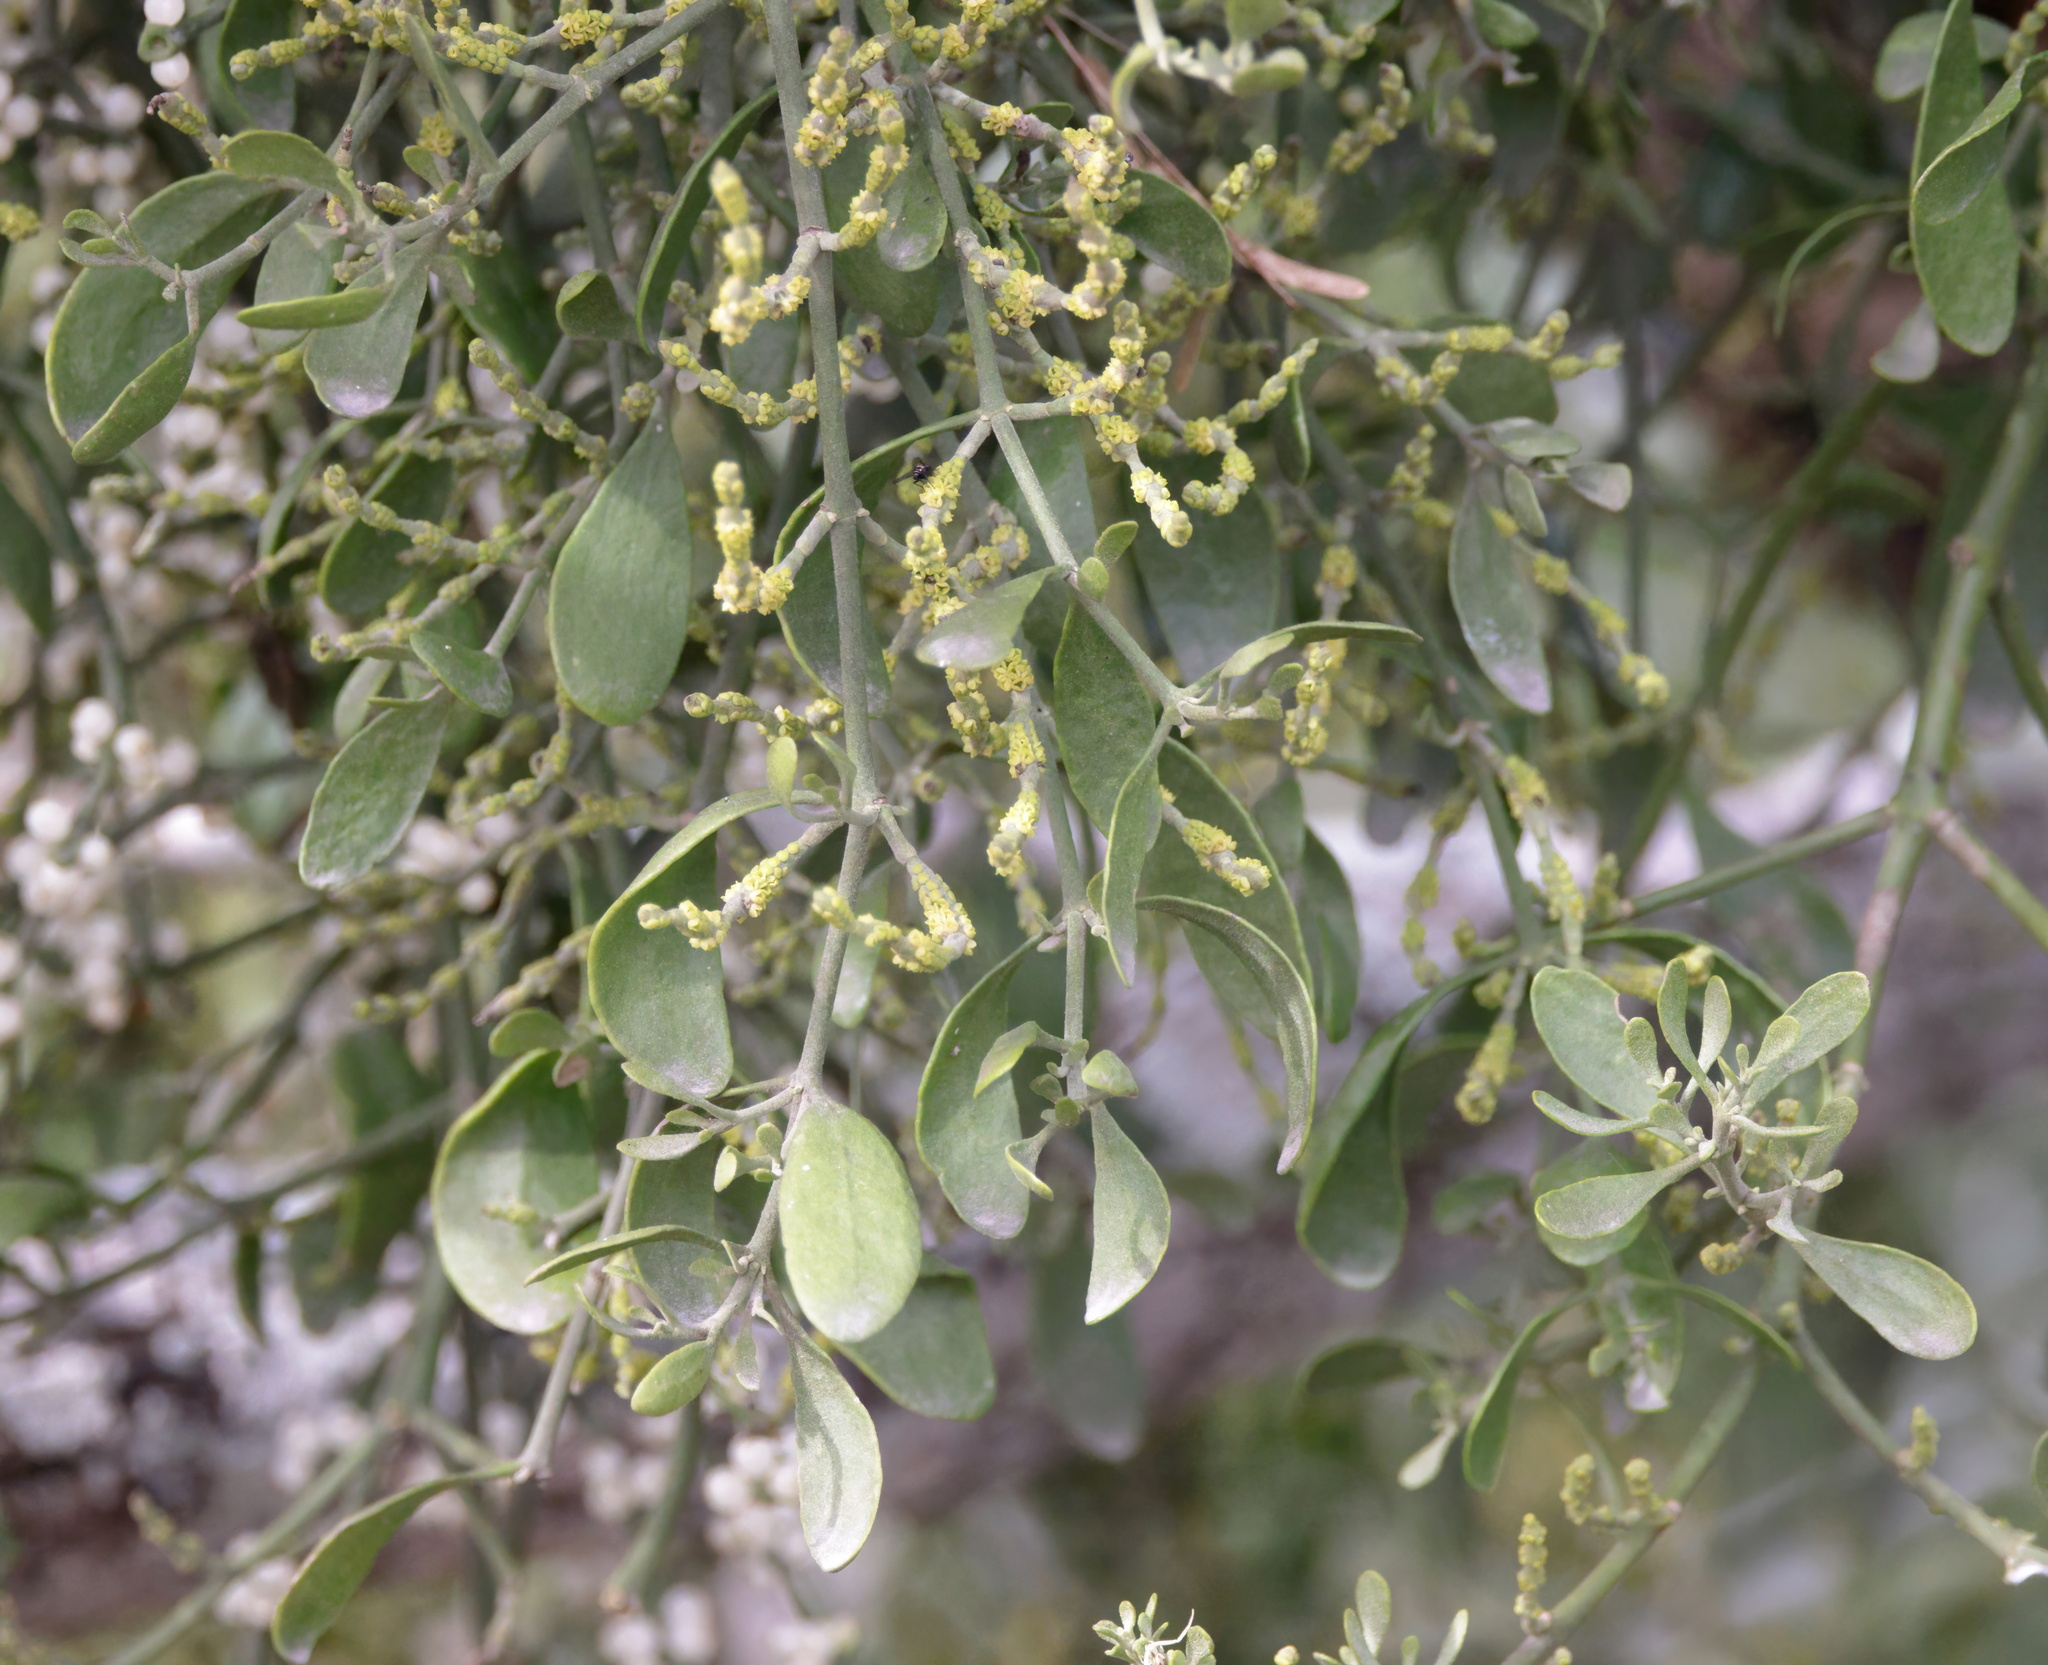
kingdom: Plantae
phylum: Tracheophyta
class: Magnoliopsida
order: Santalales
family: Viscaceae
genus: Phoradendron
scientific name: Phoradendron leucarpum
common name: Pacific mistletoe
